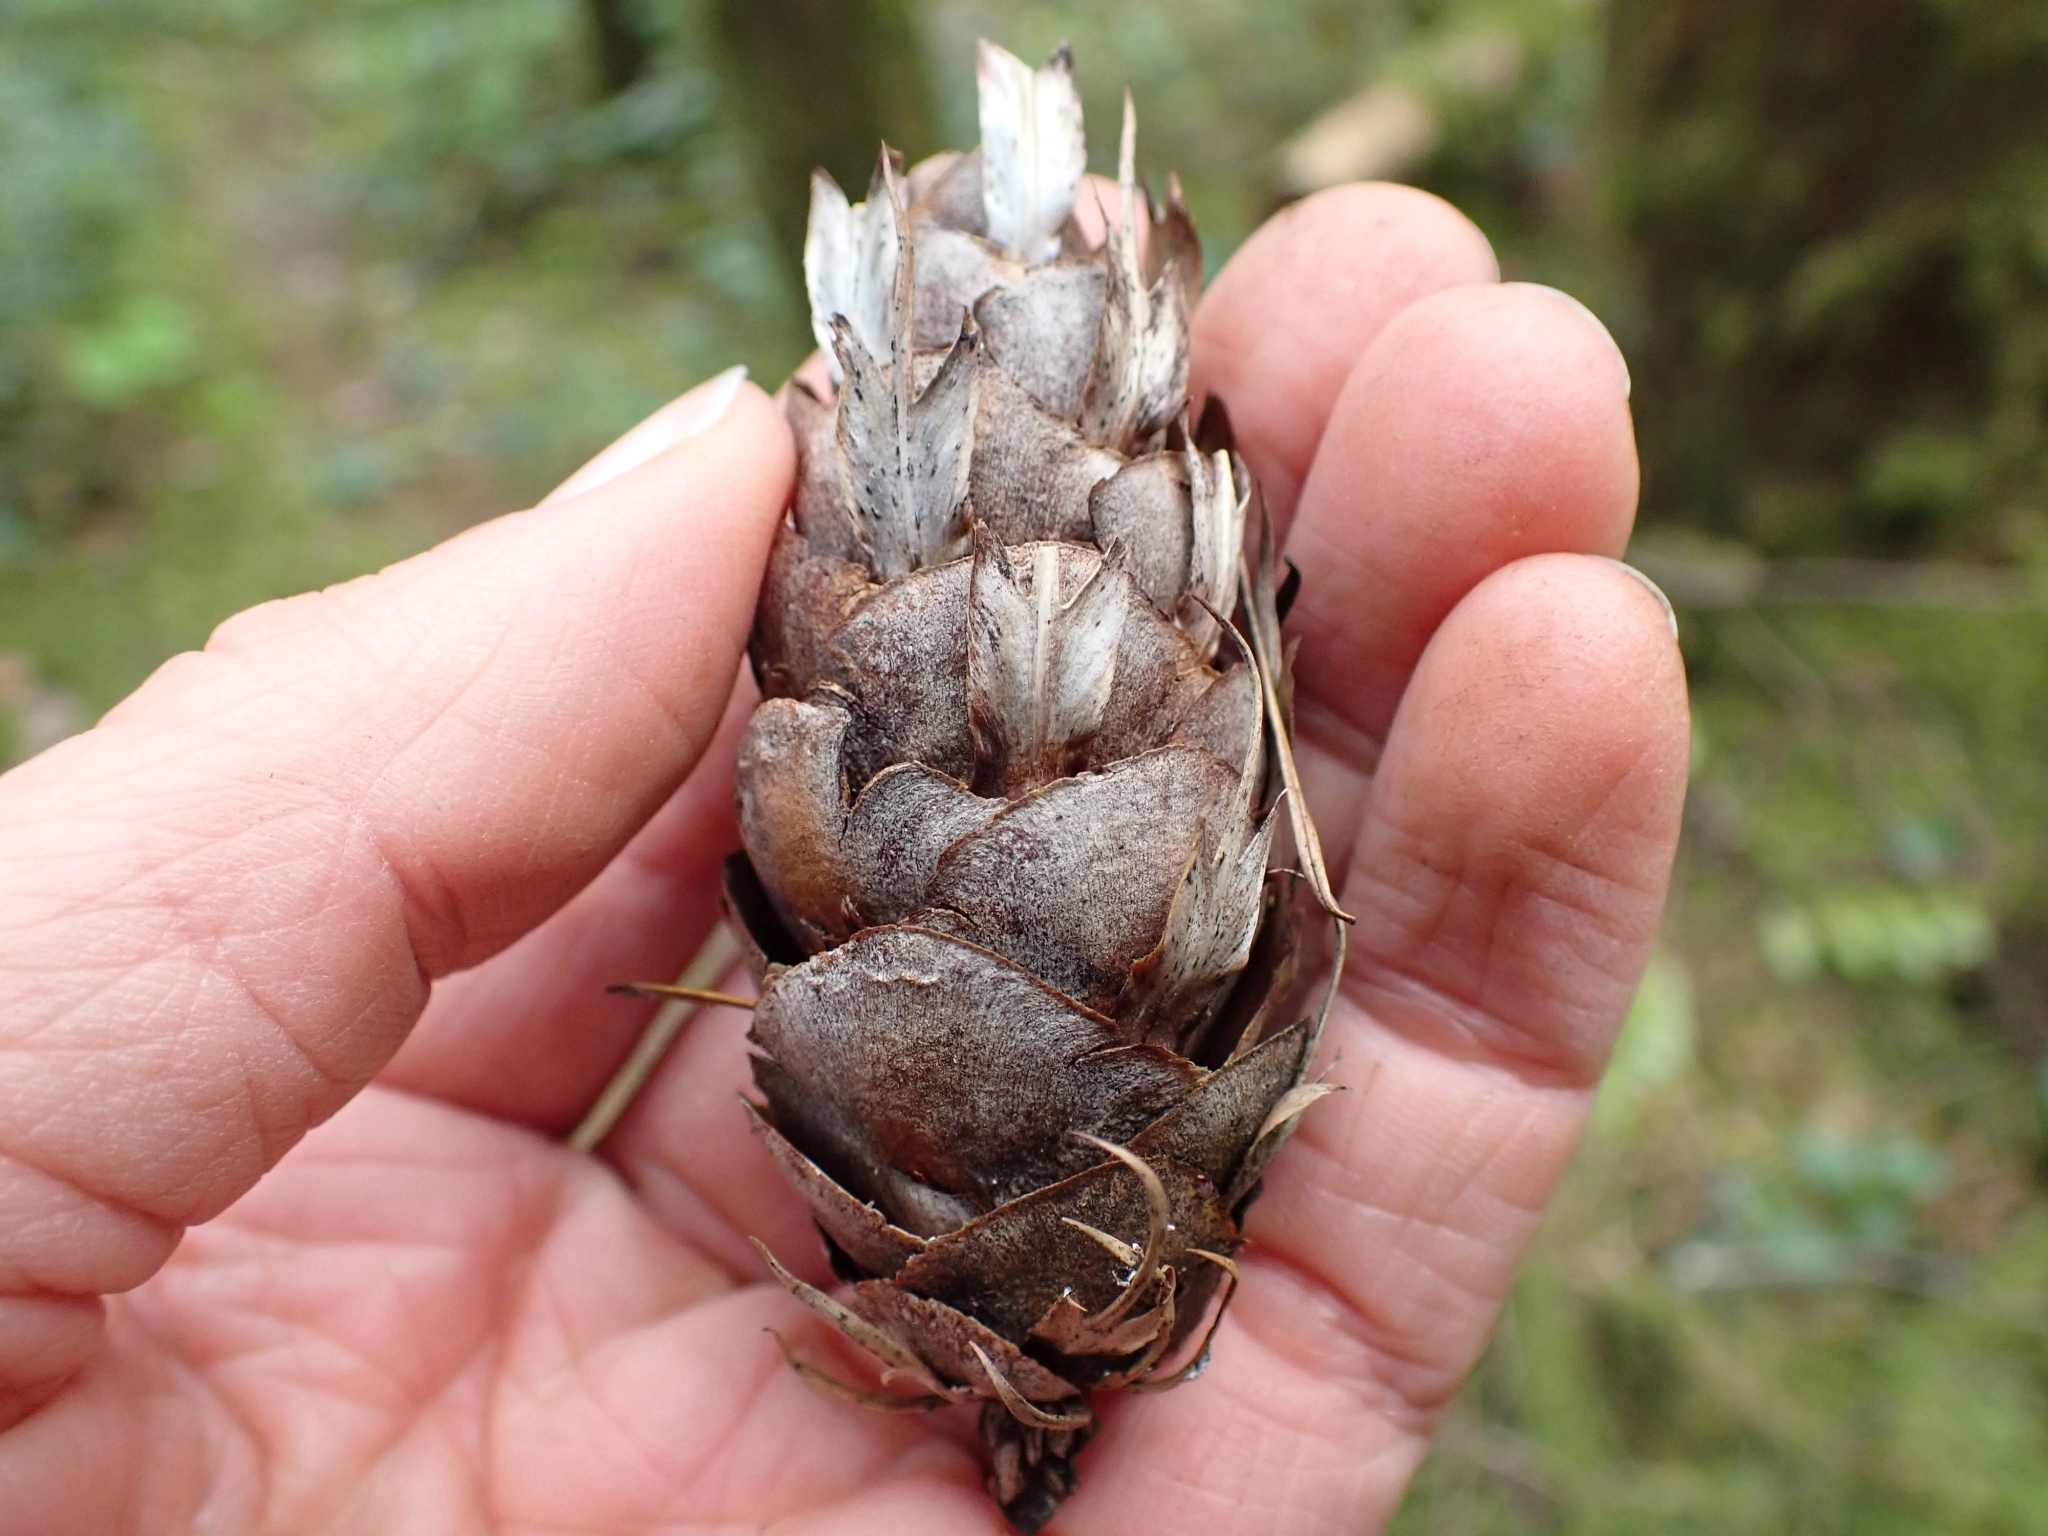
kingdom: Plantae
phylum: Tracheophyta
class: Pinopsida
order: Pinales
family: Pinaceae
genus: Pseudotsuga
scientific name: Pseudotsuga menziesii
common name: Douglas fir
